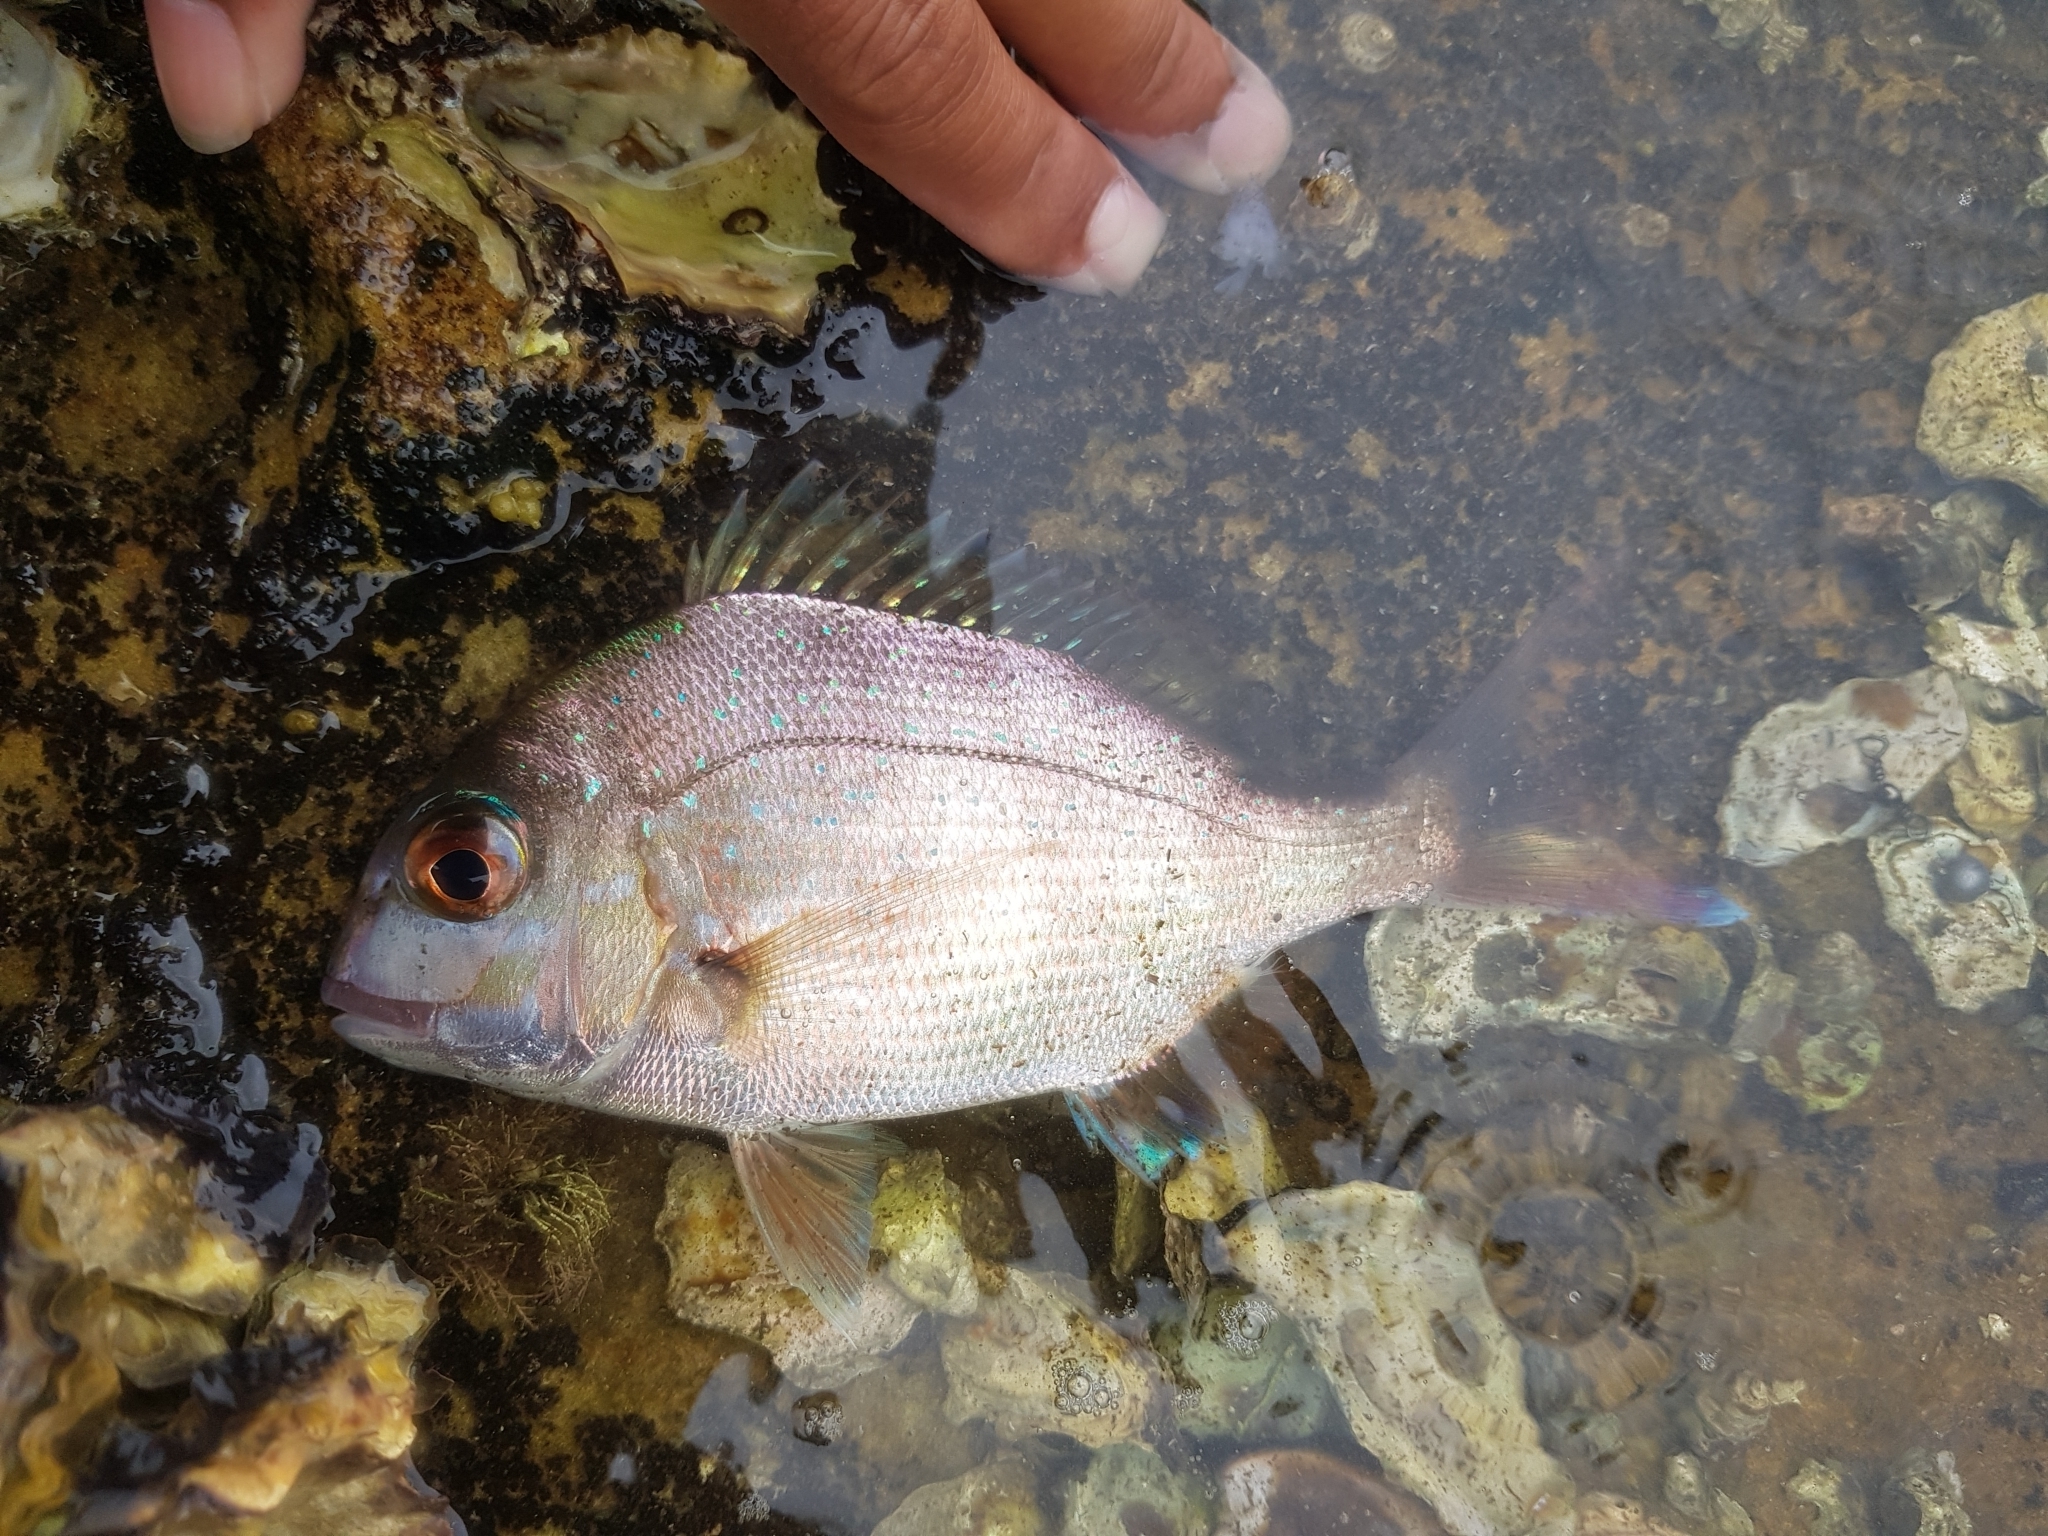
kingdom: Animalia
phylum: Chordata
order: Perciformes
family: Sparidae
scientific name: Sparidae
